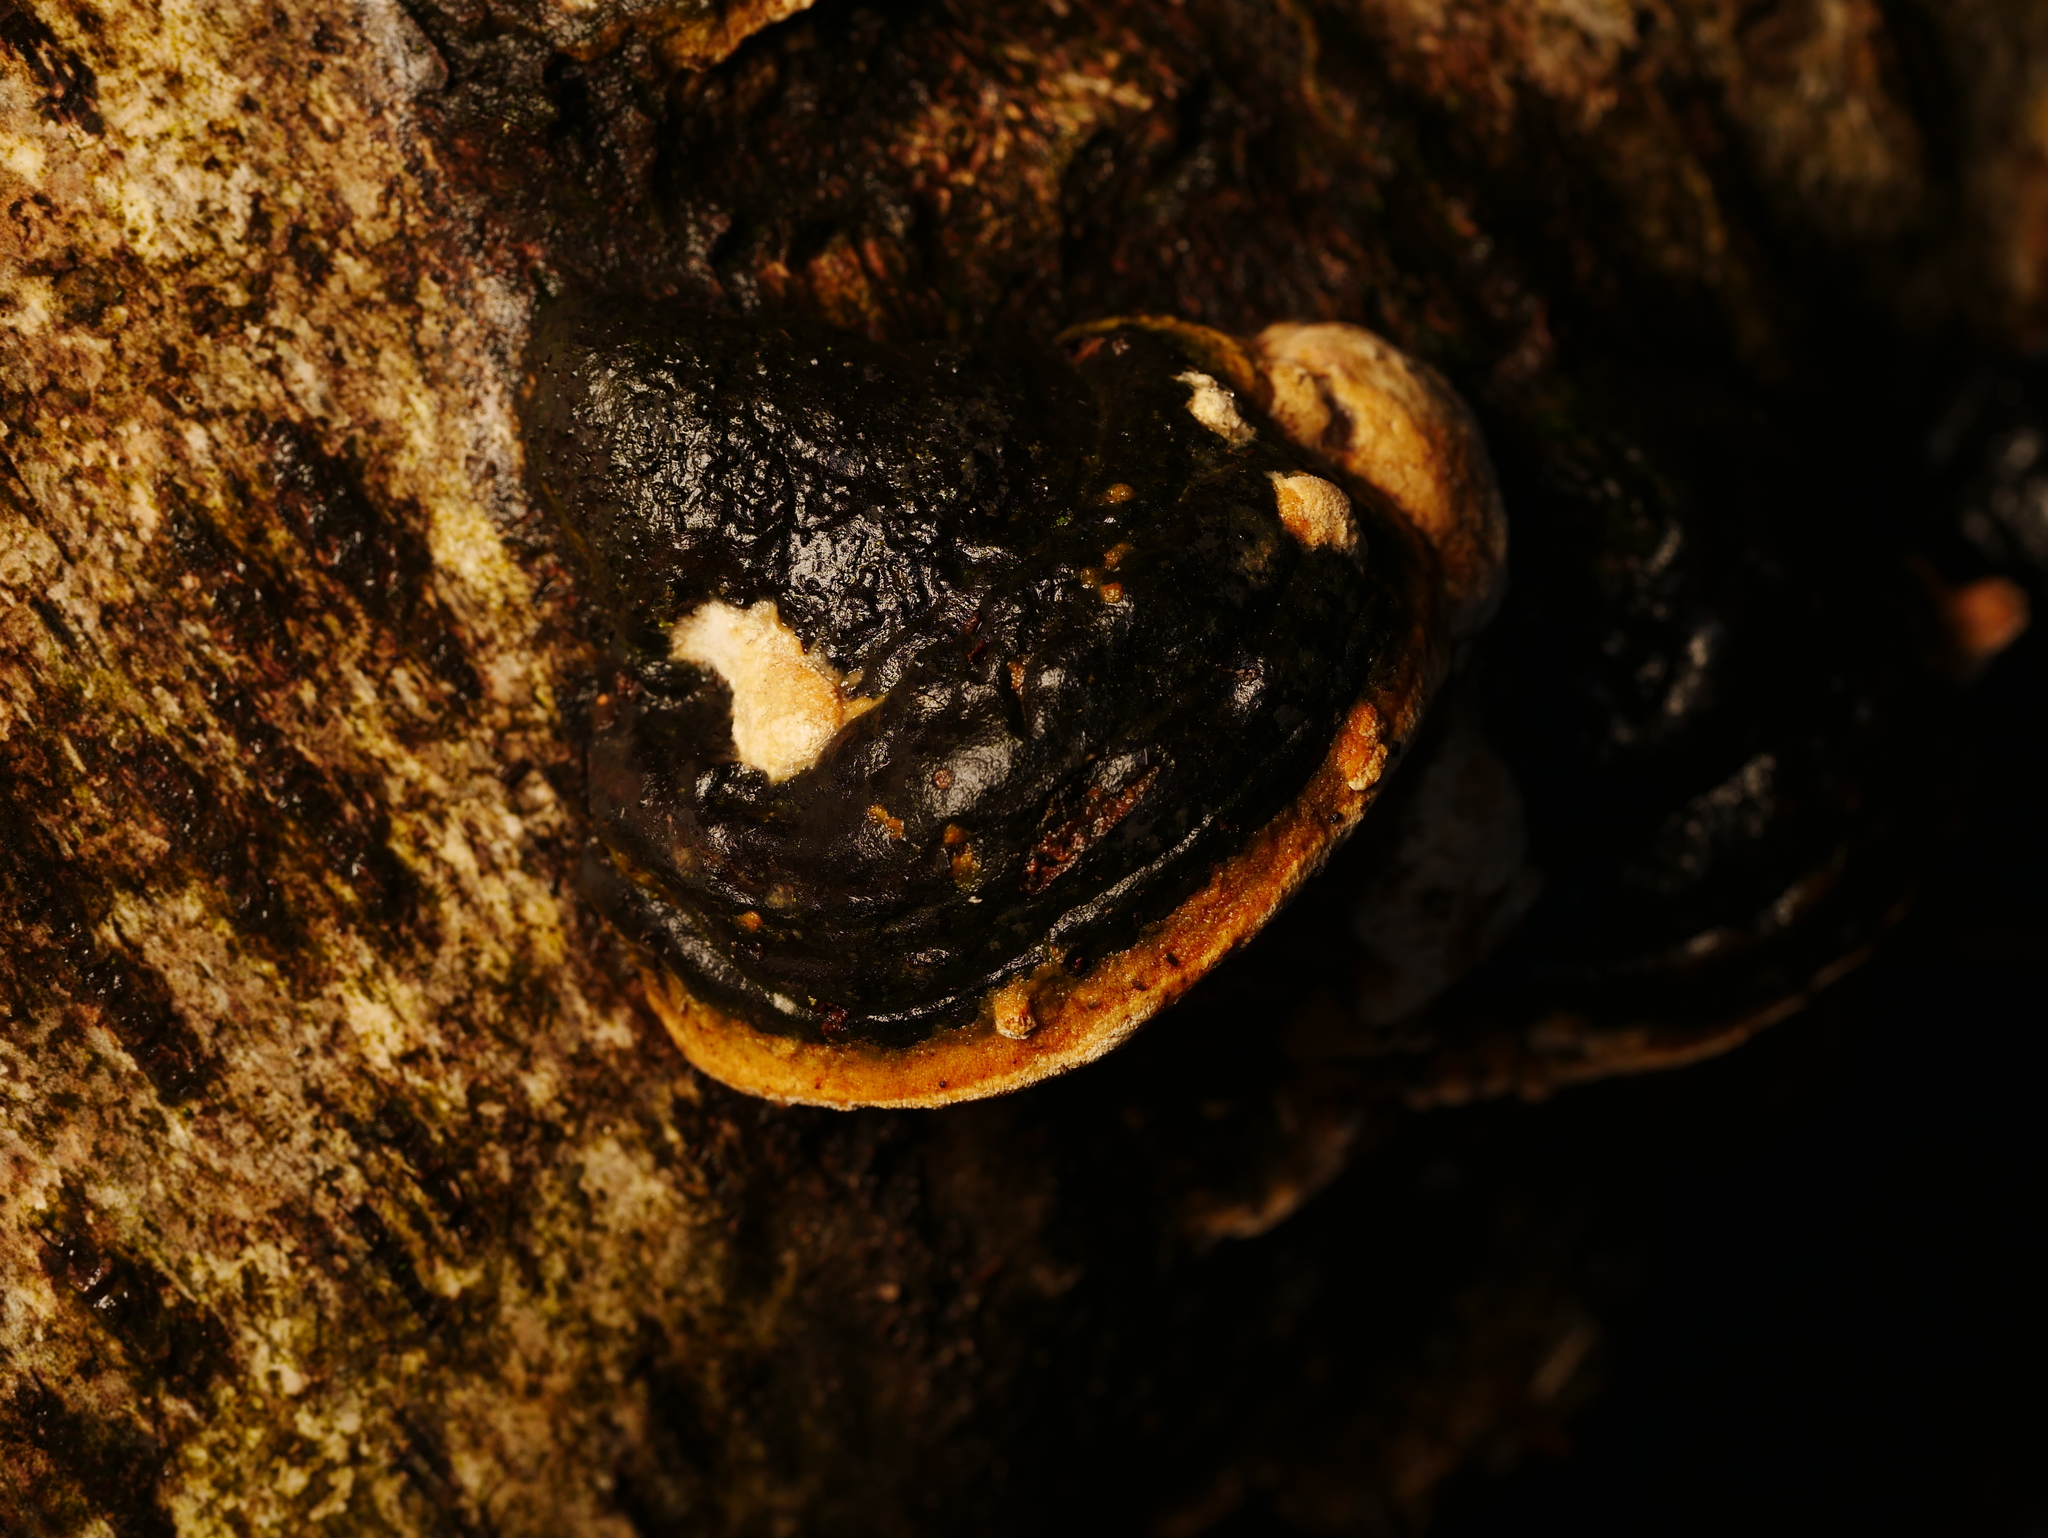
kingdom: Fungi
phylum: Basidiomycota
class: Agaricomycetes
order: Polyporales
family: Fomitopsidaceae
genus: Fomitopsis
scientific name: Fomitopsis pinicola
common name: Red-belted bracket
